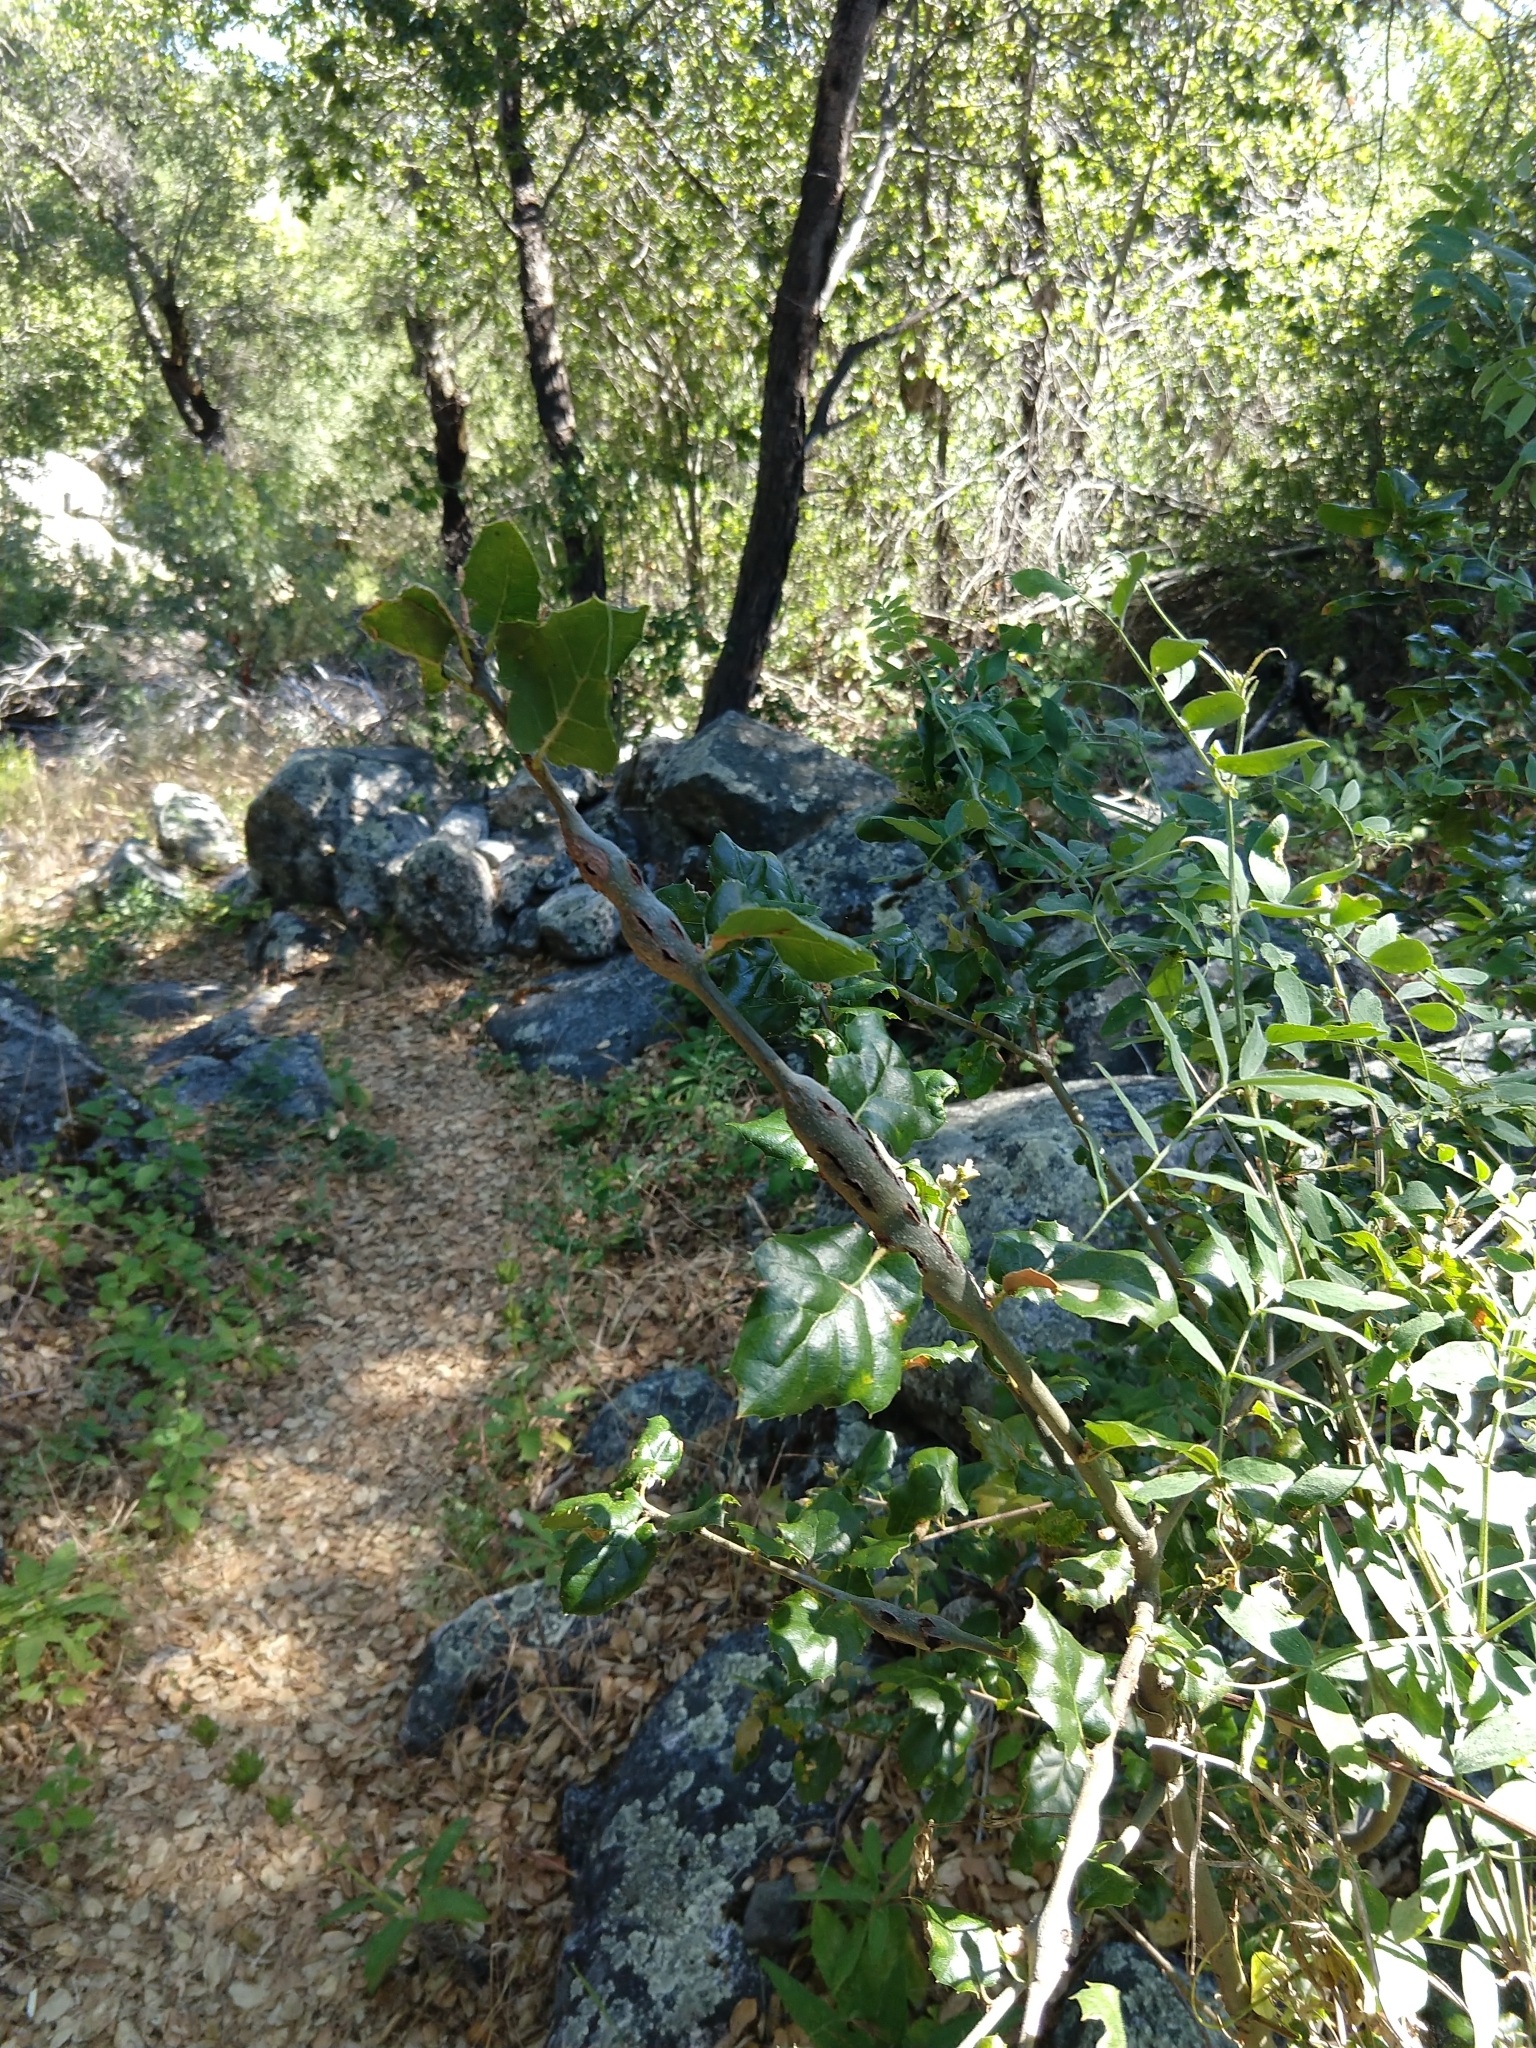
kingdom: Animalia
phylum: Arthropoda
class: Insecta
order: Hymenoptera
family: Cynipidae
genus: Callirhytis
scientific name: Callirhytis
